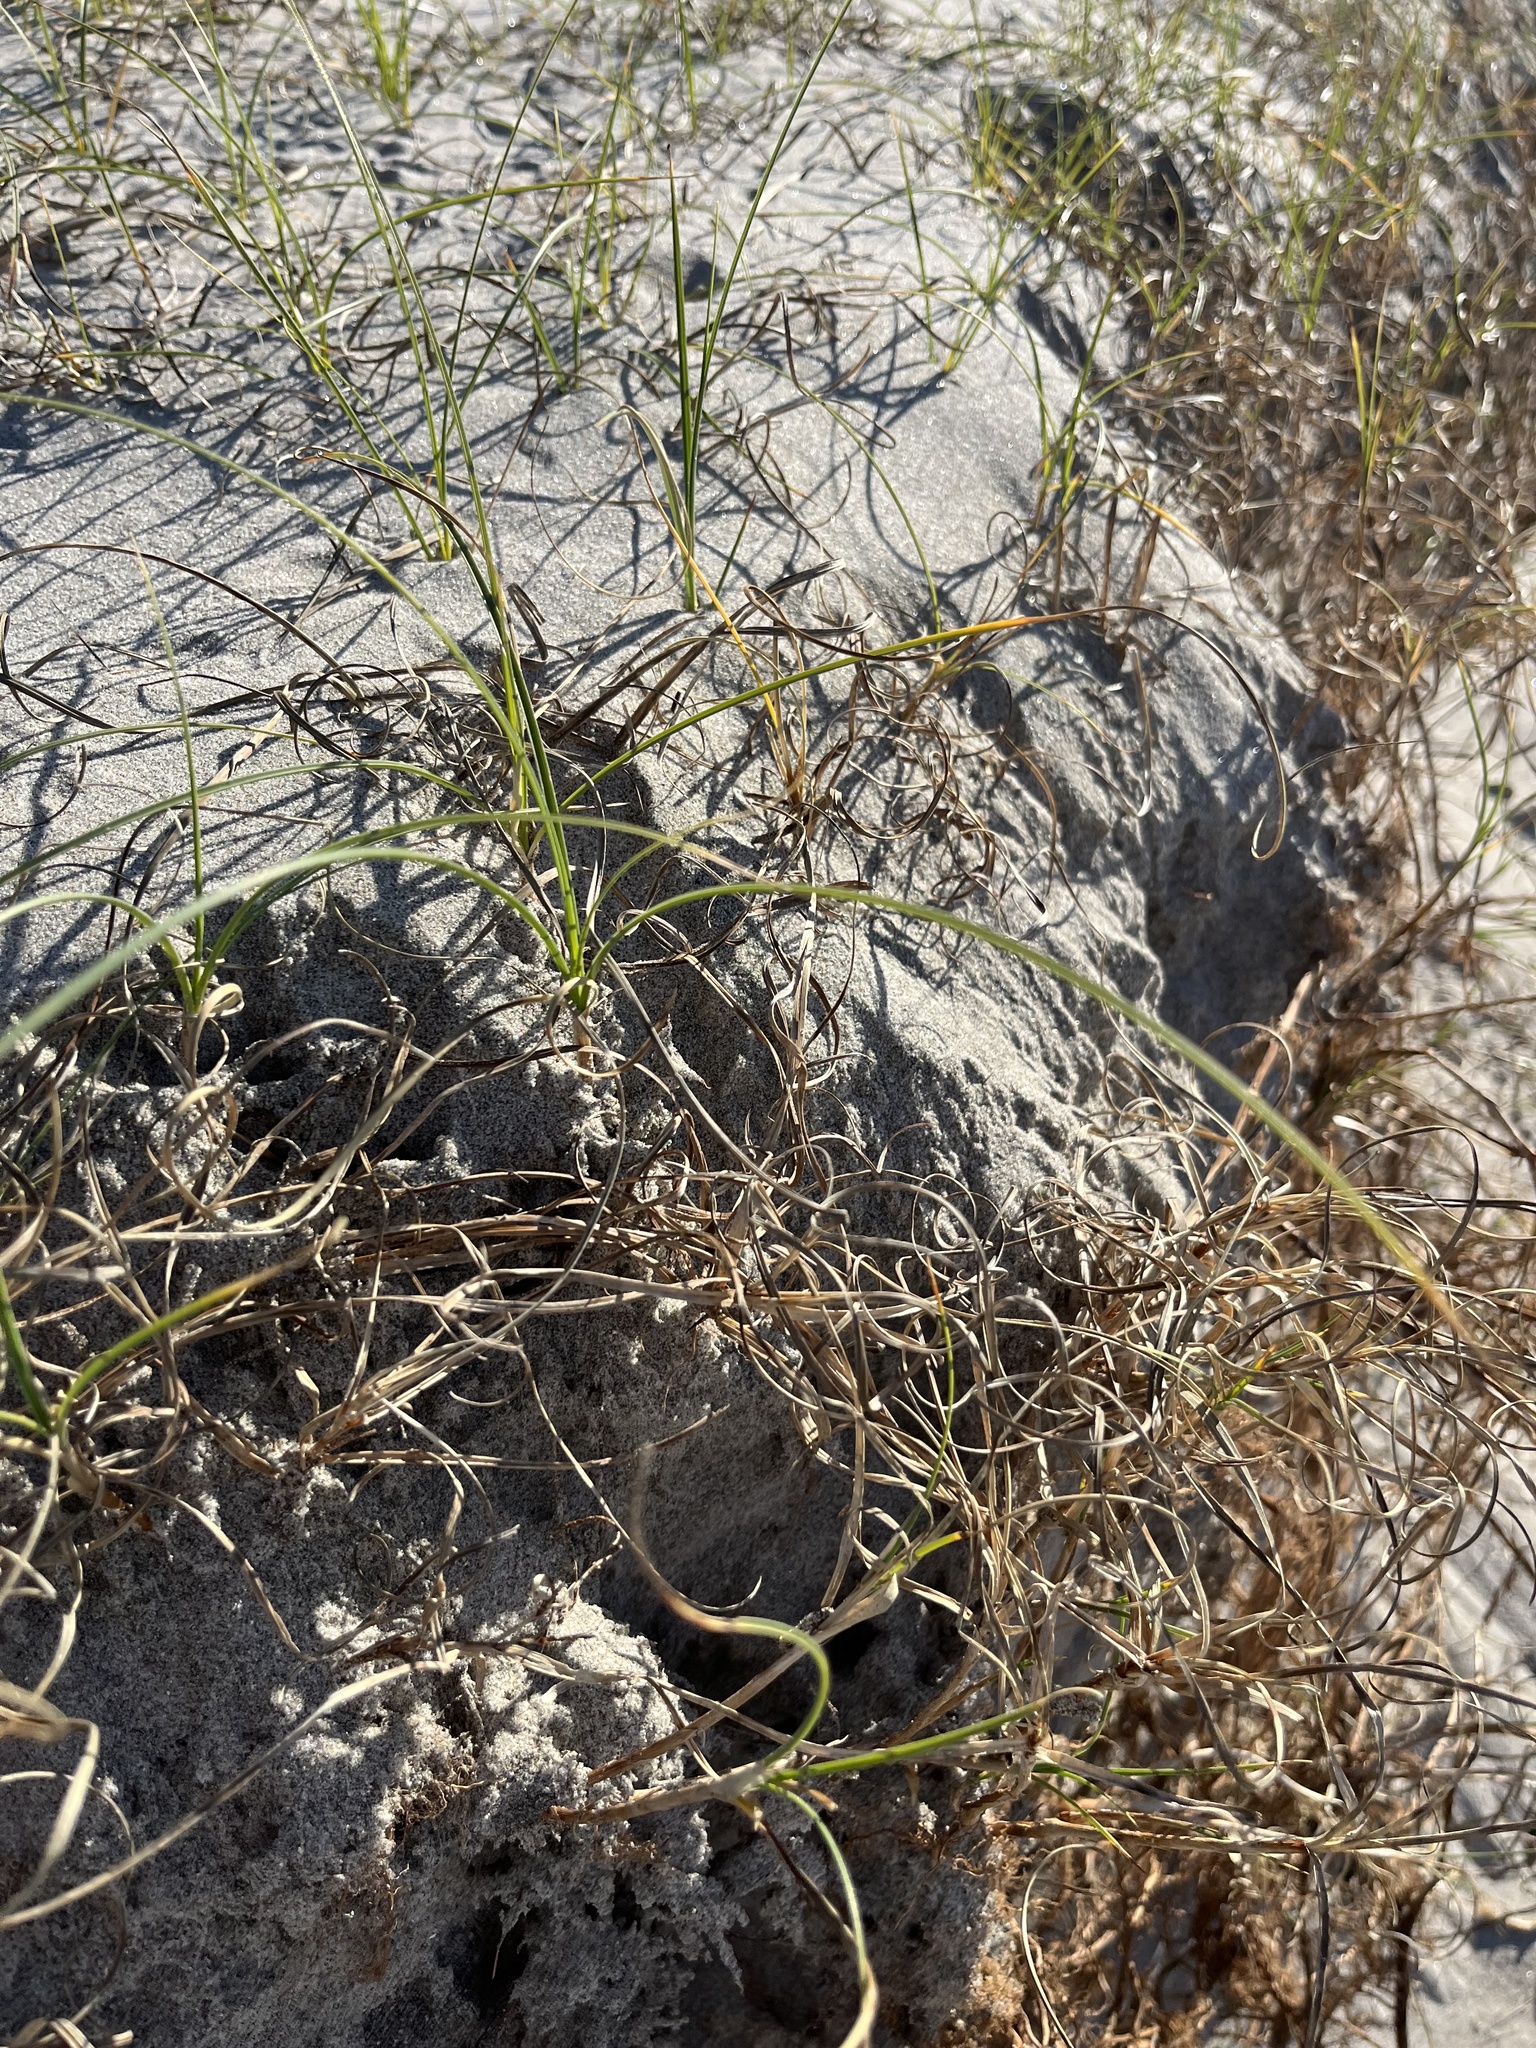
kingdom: Plantae
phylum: Tracheophyta
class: Liliopsida
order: Poales
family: Cyperaceae
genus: Carex
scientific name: Carex pumila
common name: Dwarf sedge
